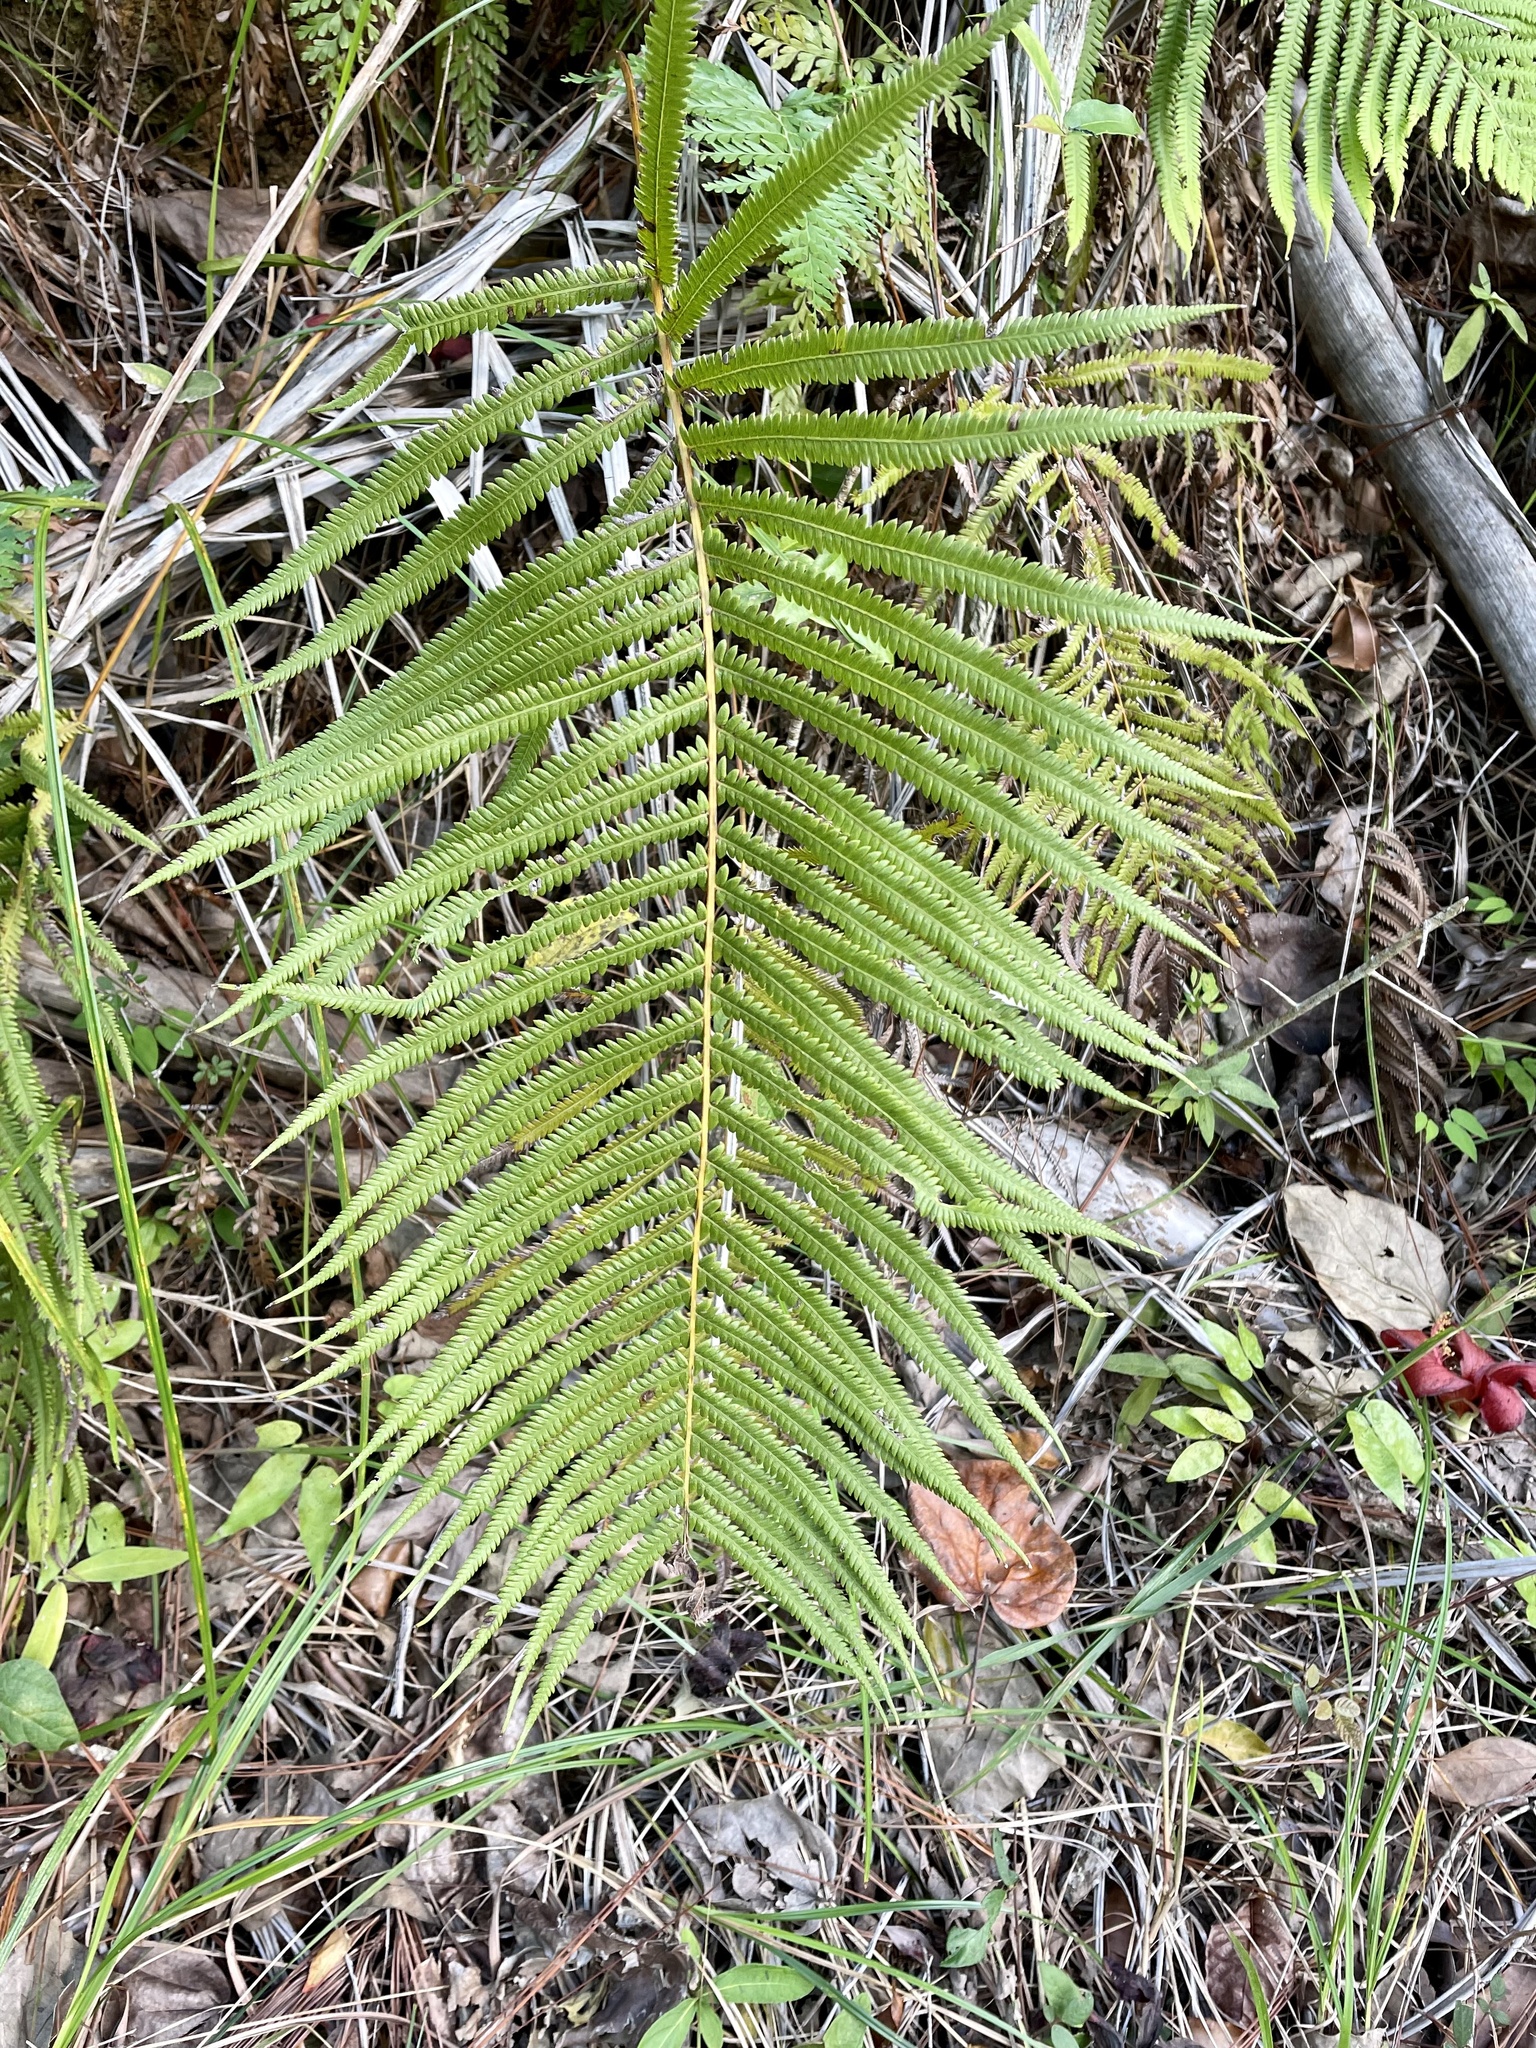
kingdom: Plantae
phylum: Tracheophyta
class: Polypodiopsida
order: Polypodiales
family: Thelypteridaceae
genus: Pelazoneuron
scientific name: Pelazoneuron augescens
